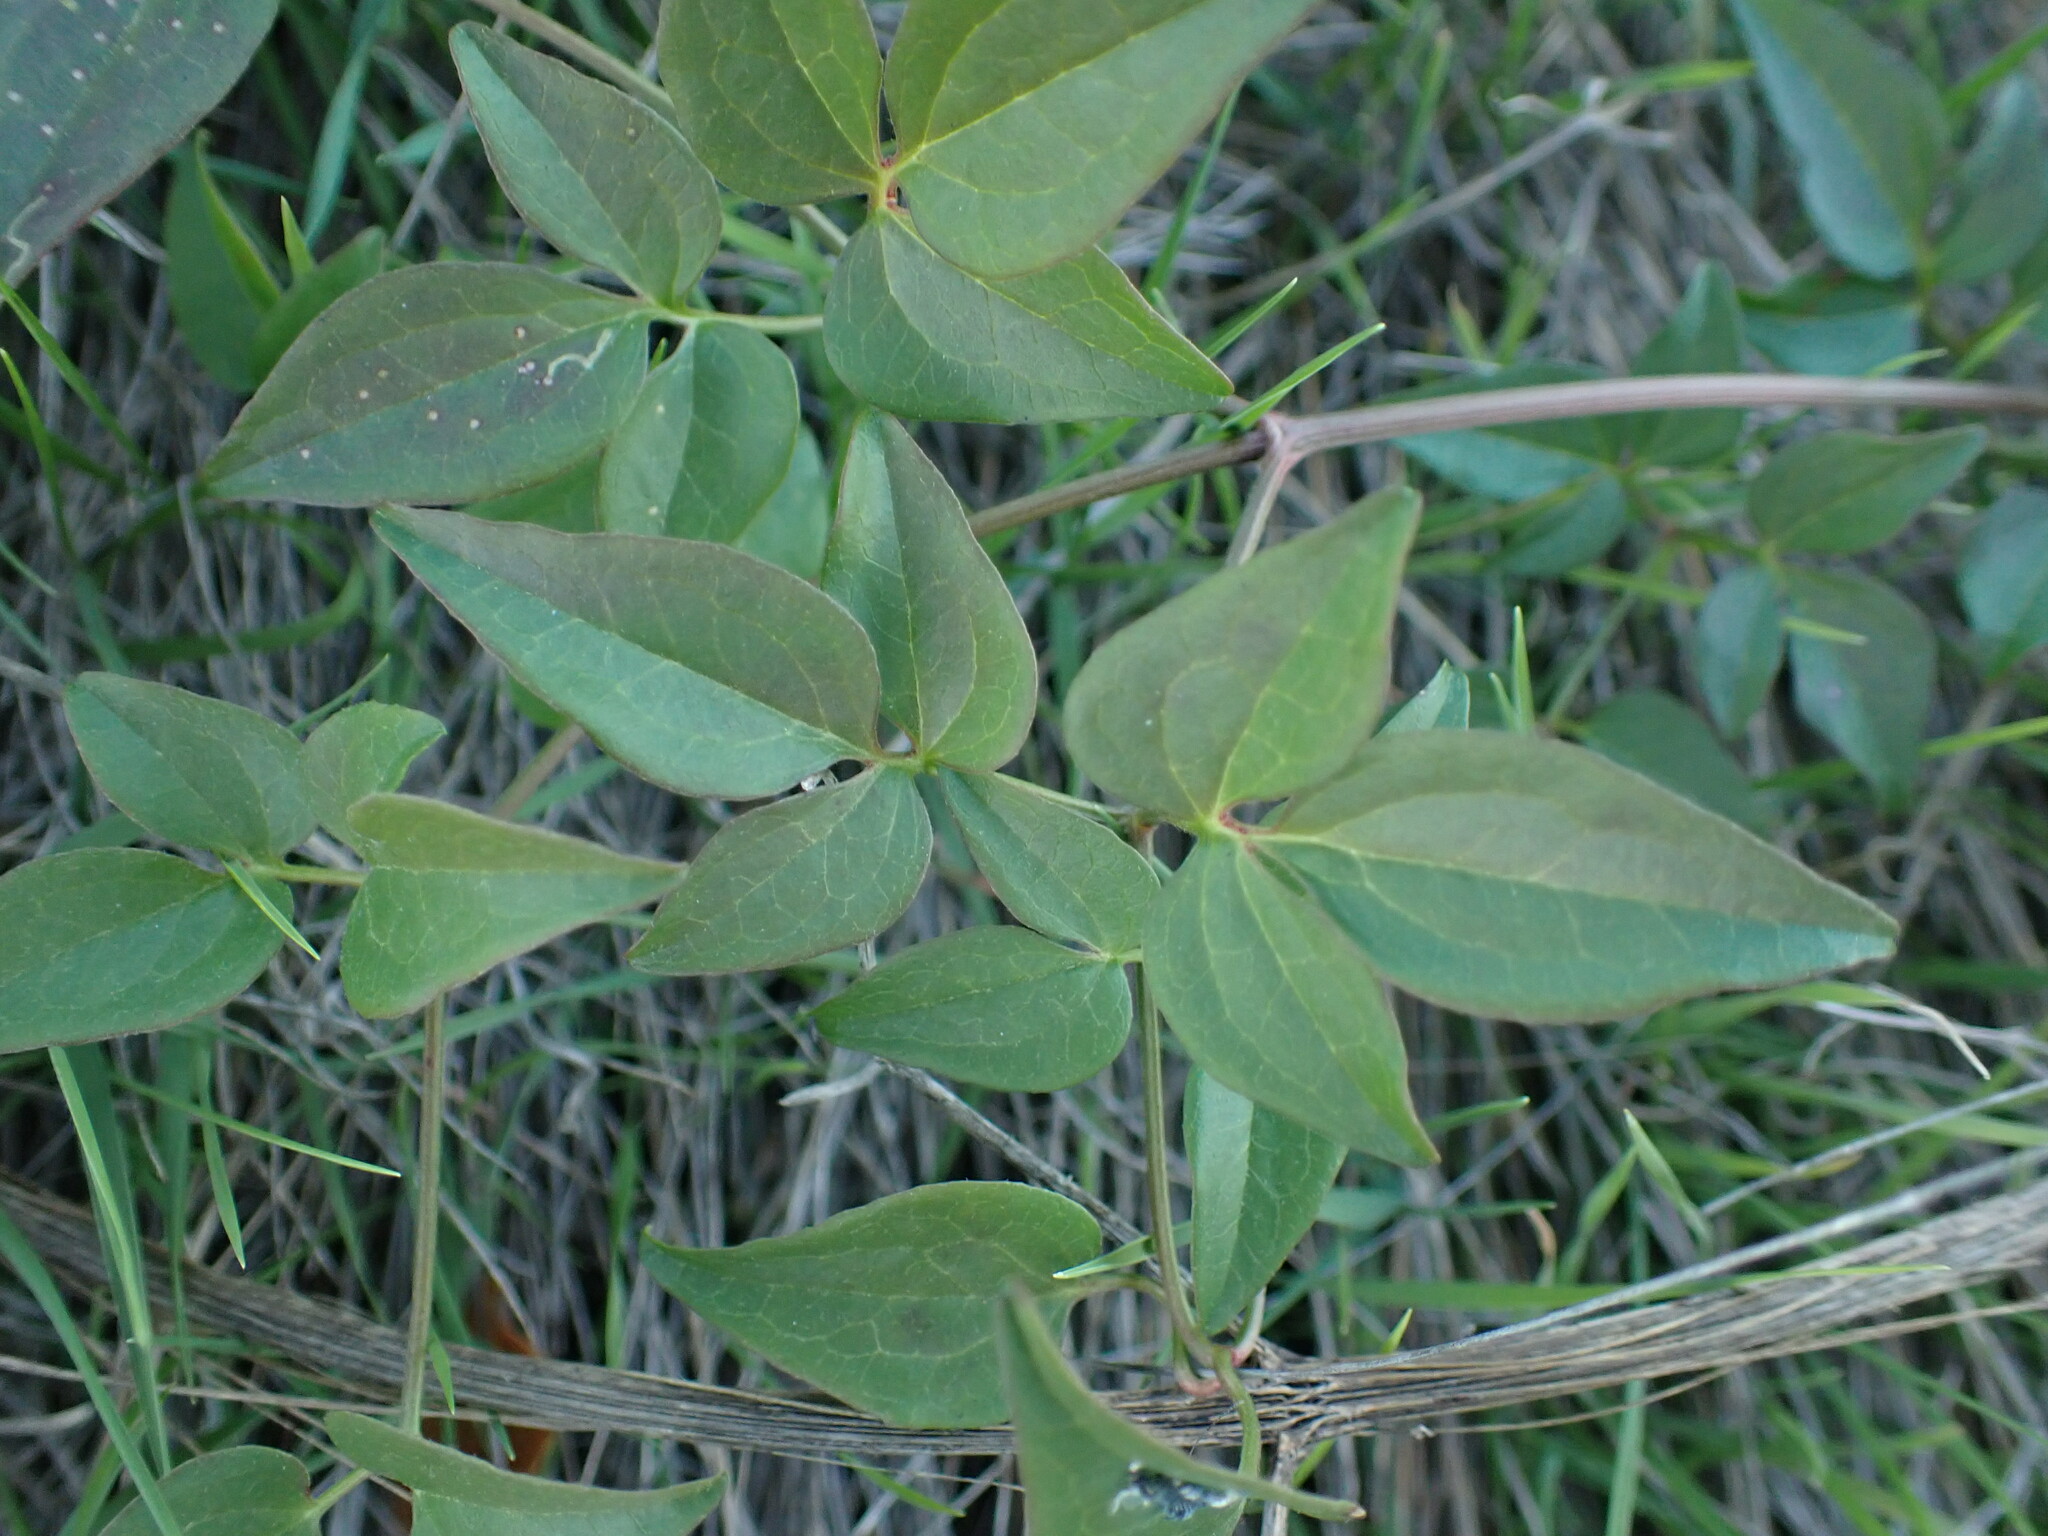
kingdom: Plantae
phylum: Tracheophyta
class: Magnoliopsida
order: Ranunculales
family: Ranunculaceae
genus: Clematis
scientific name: Clematis flammula
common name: Virgin's-bower
